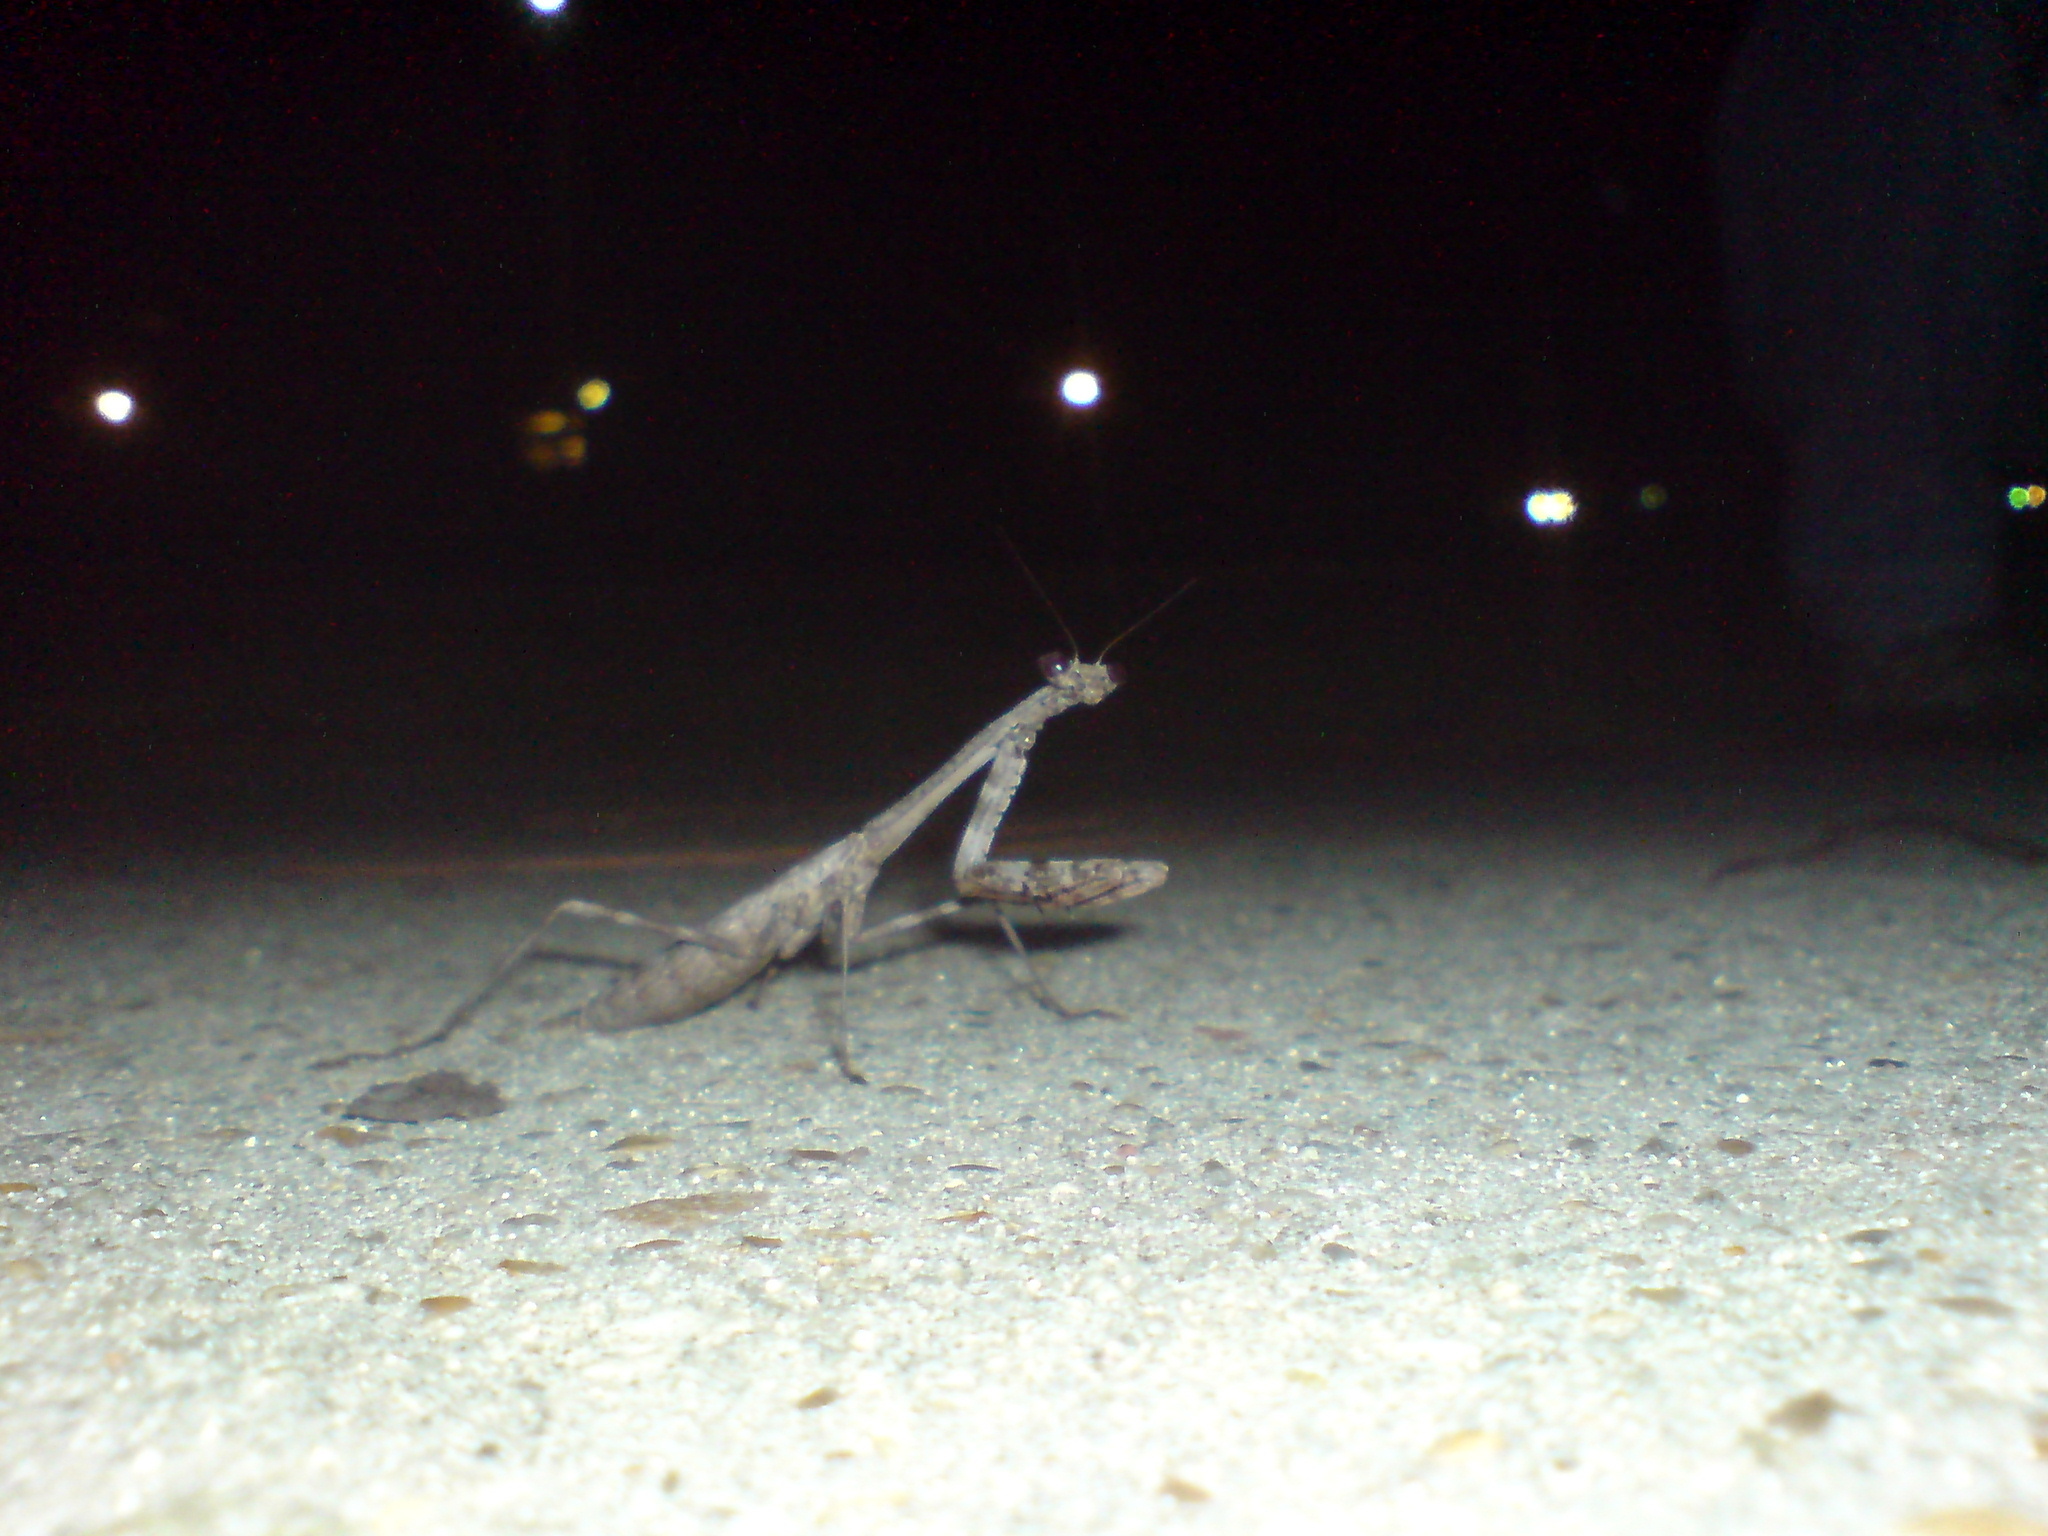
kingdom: Animalia
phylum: Arthropoda
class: Insecta
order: Mantodea
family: Mantidae
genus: Stagmomantis
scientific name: Stagmomantis carolina
